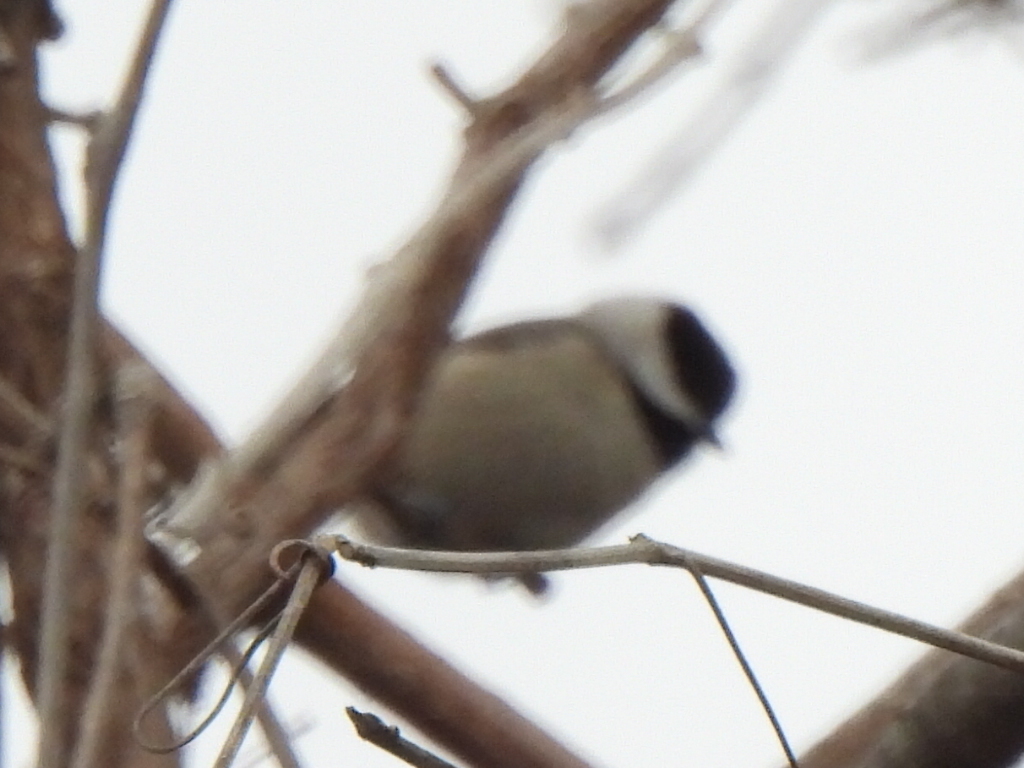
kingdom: Animalia
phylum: Chordata
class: Aves
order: Passeriformes
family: Paridae
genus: Poecile
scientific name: Poecile carolinensis
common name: Carolina chickadee
